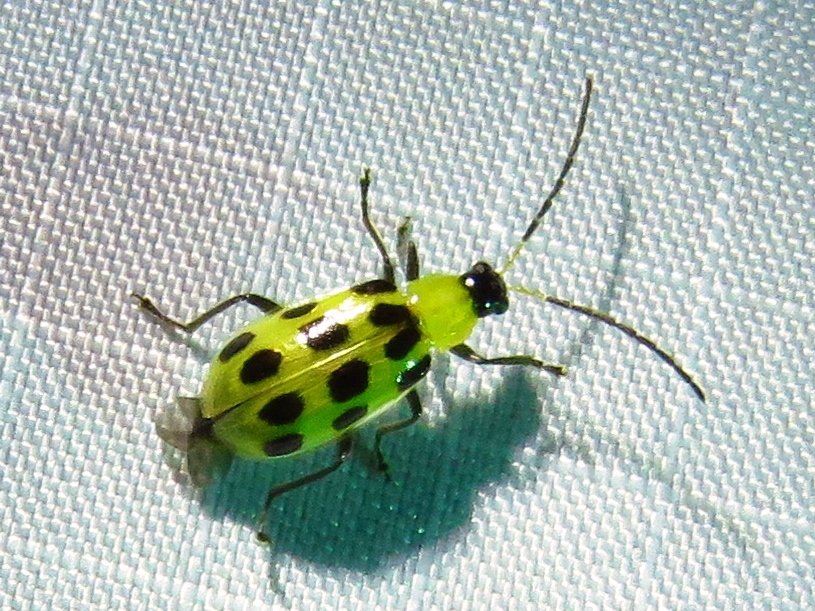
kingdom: Animalia
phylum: Arthropoda
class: Insecta
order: Coleoptera
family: Chrysomelidae
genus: Diabrotica
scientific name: Diabrotica undecimpunctata
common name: Spotted cucumber beetle
